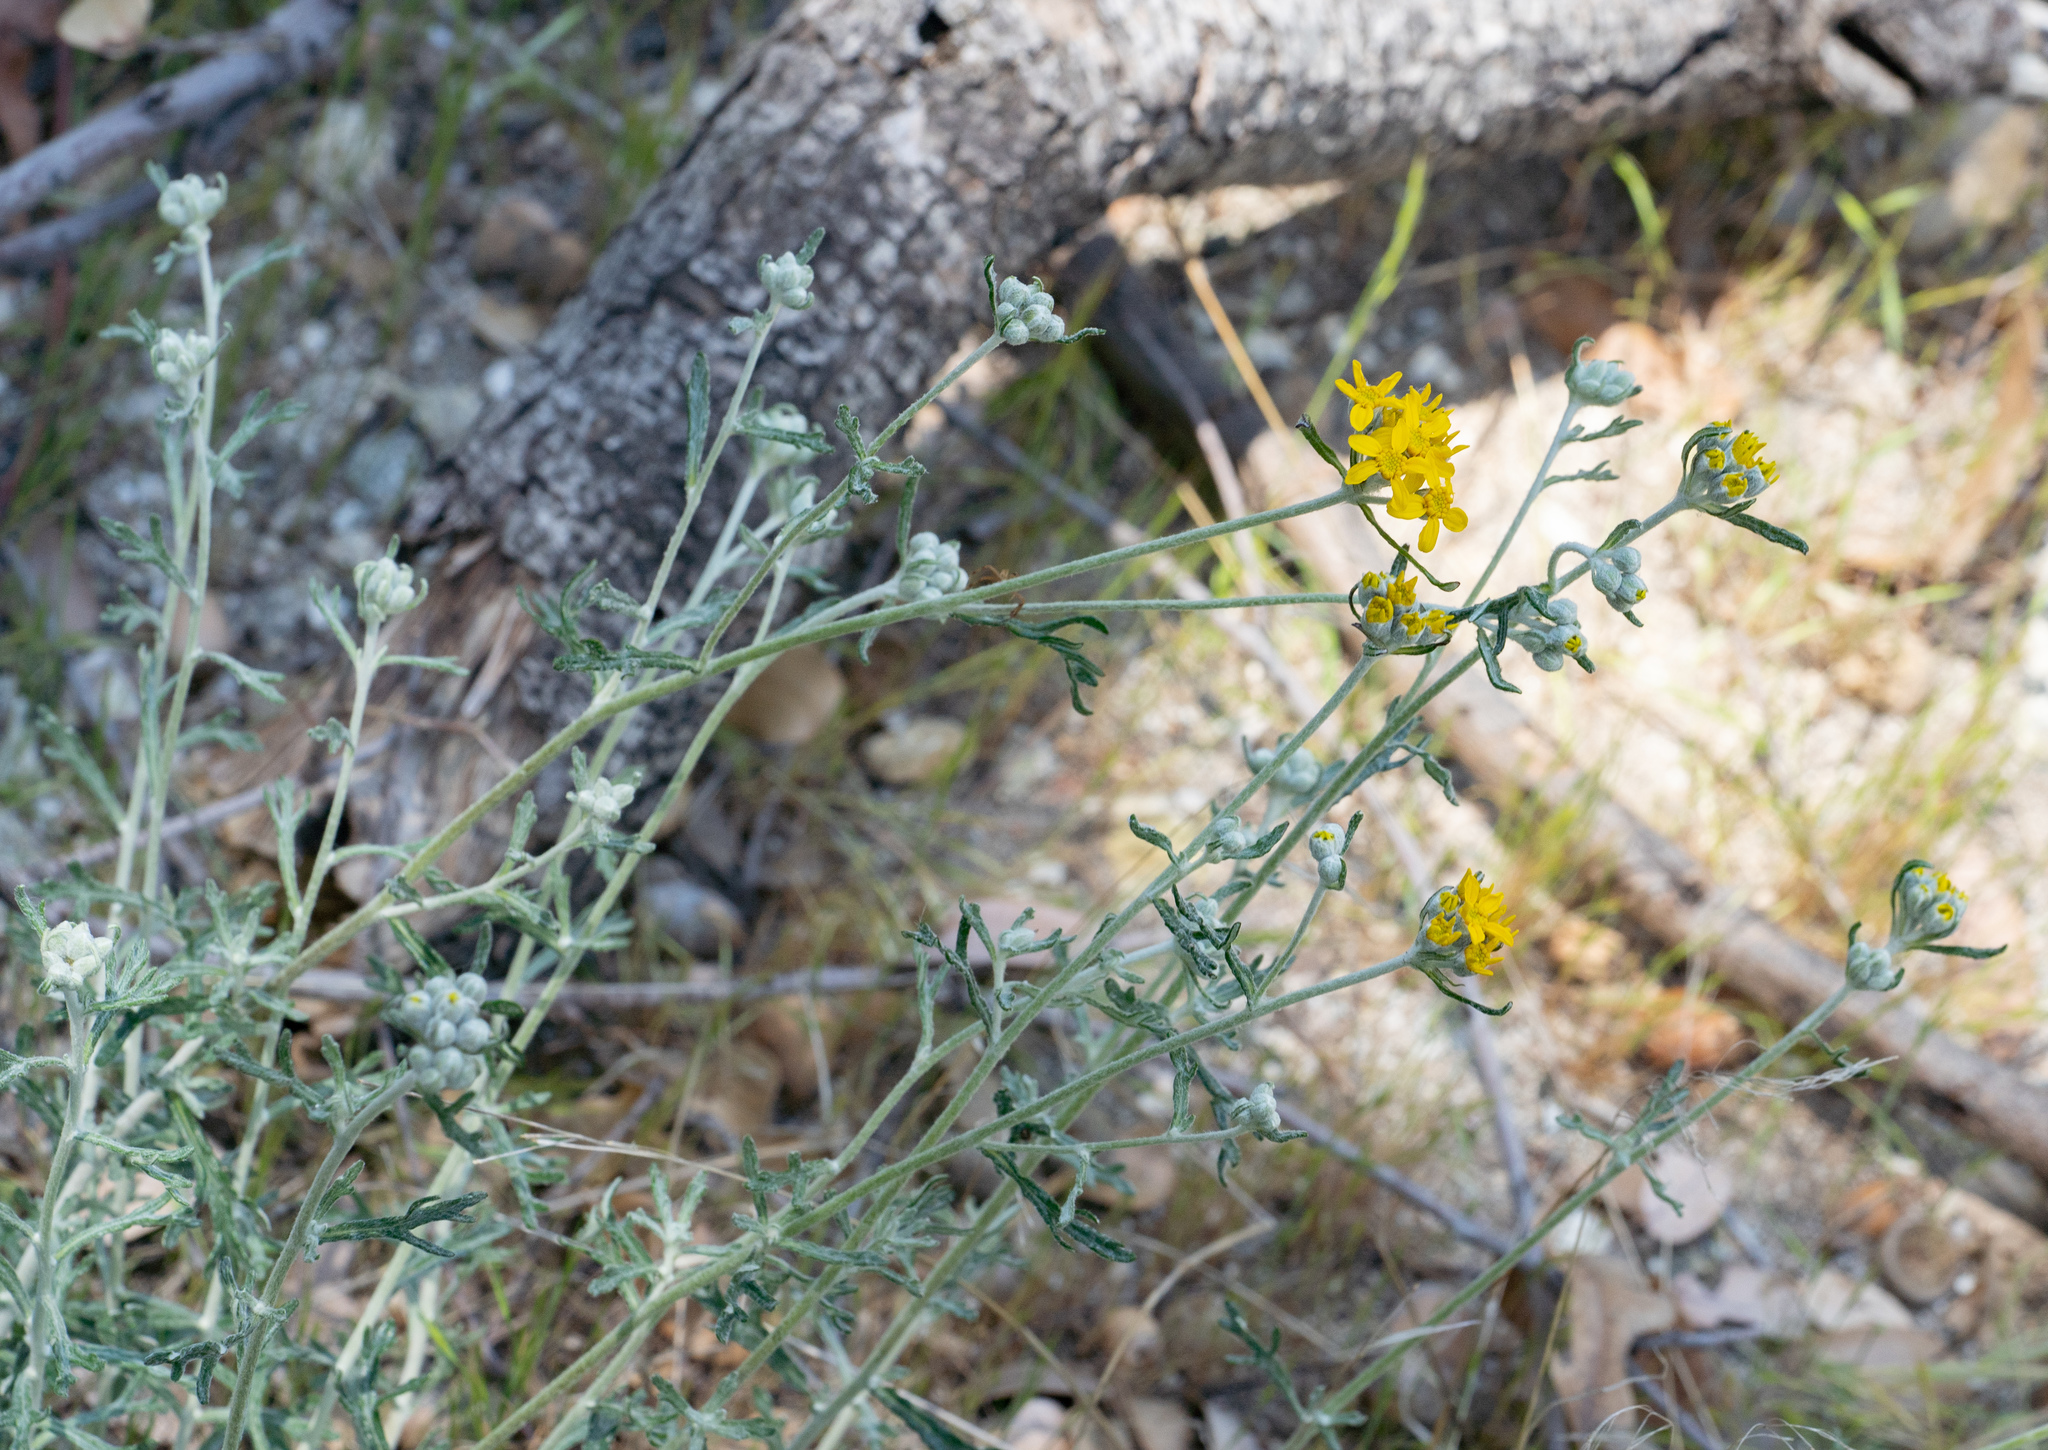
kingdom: Plantae
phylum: Tracheophyta
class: Magnoliopsida
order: Asterales
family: Asteraceae
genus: Eriophyllum
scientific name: Eriophyllum confertiflorum
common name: Golden-yarrow
